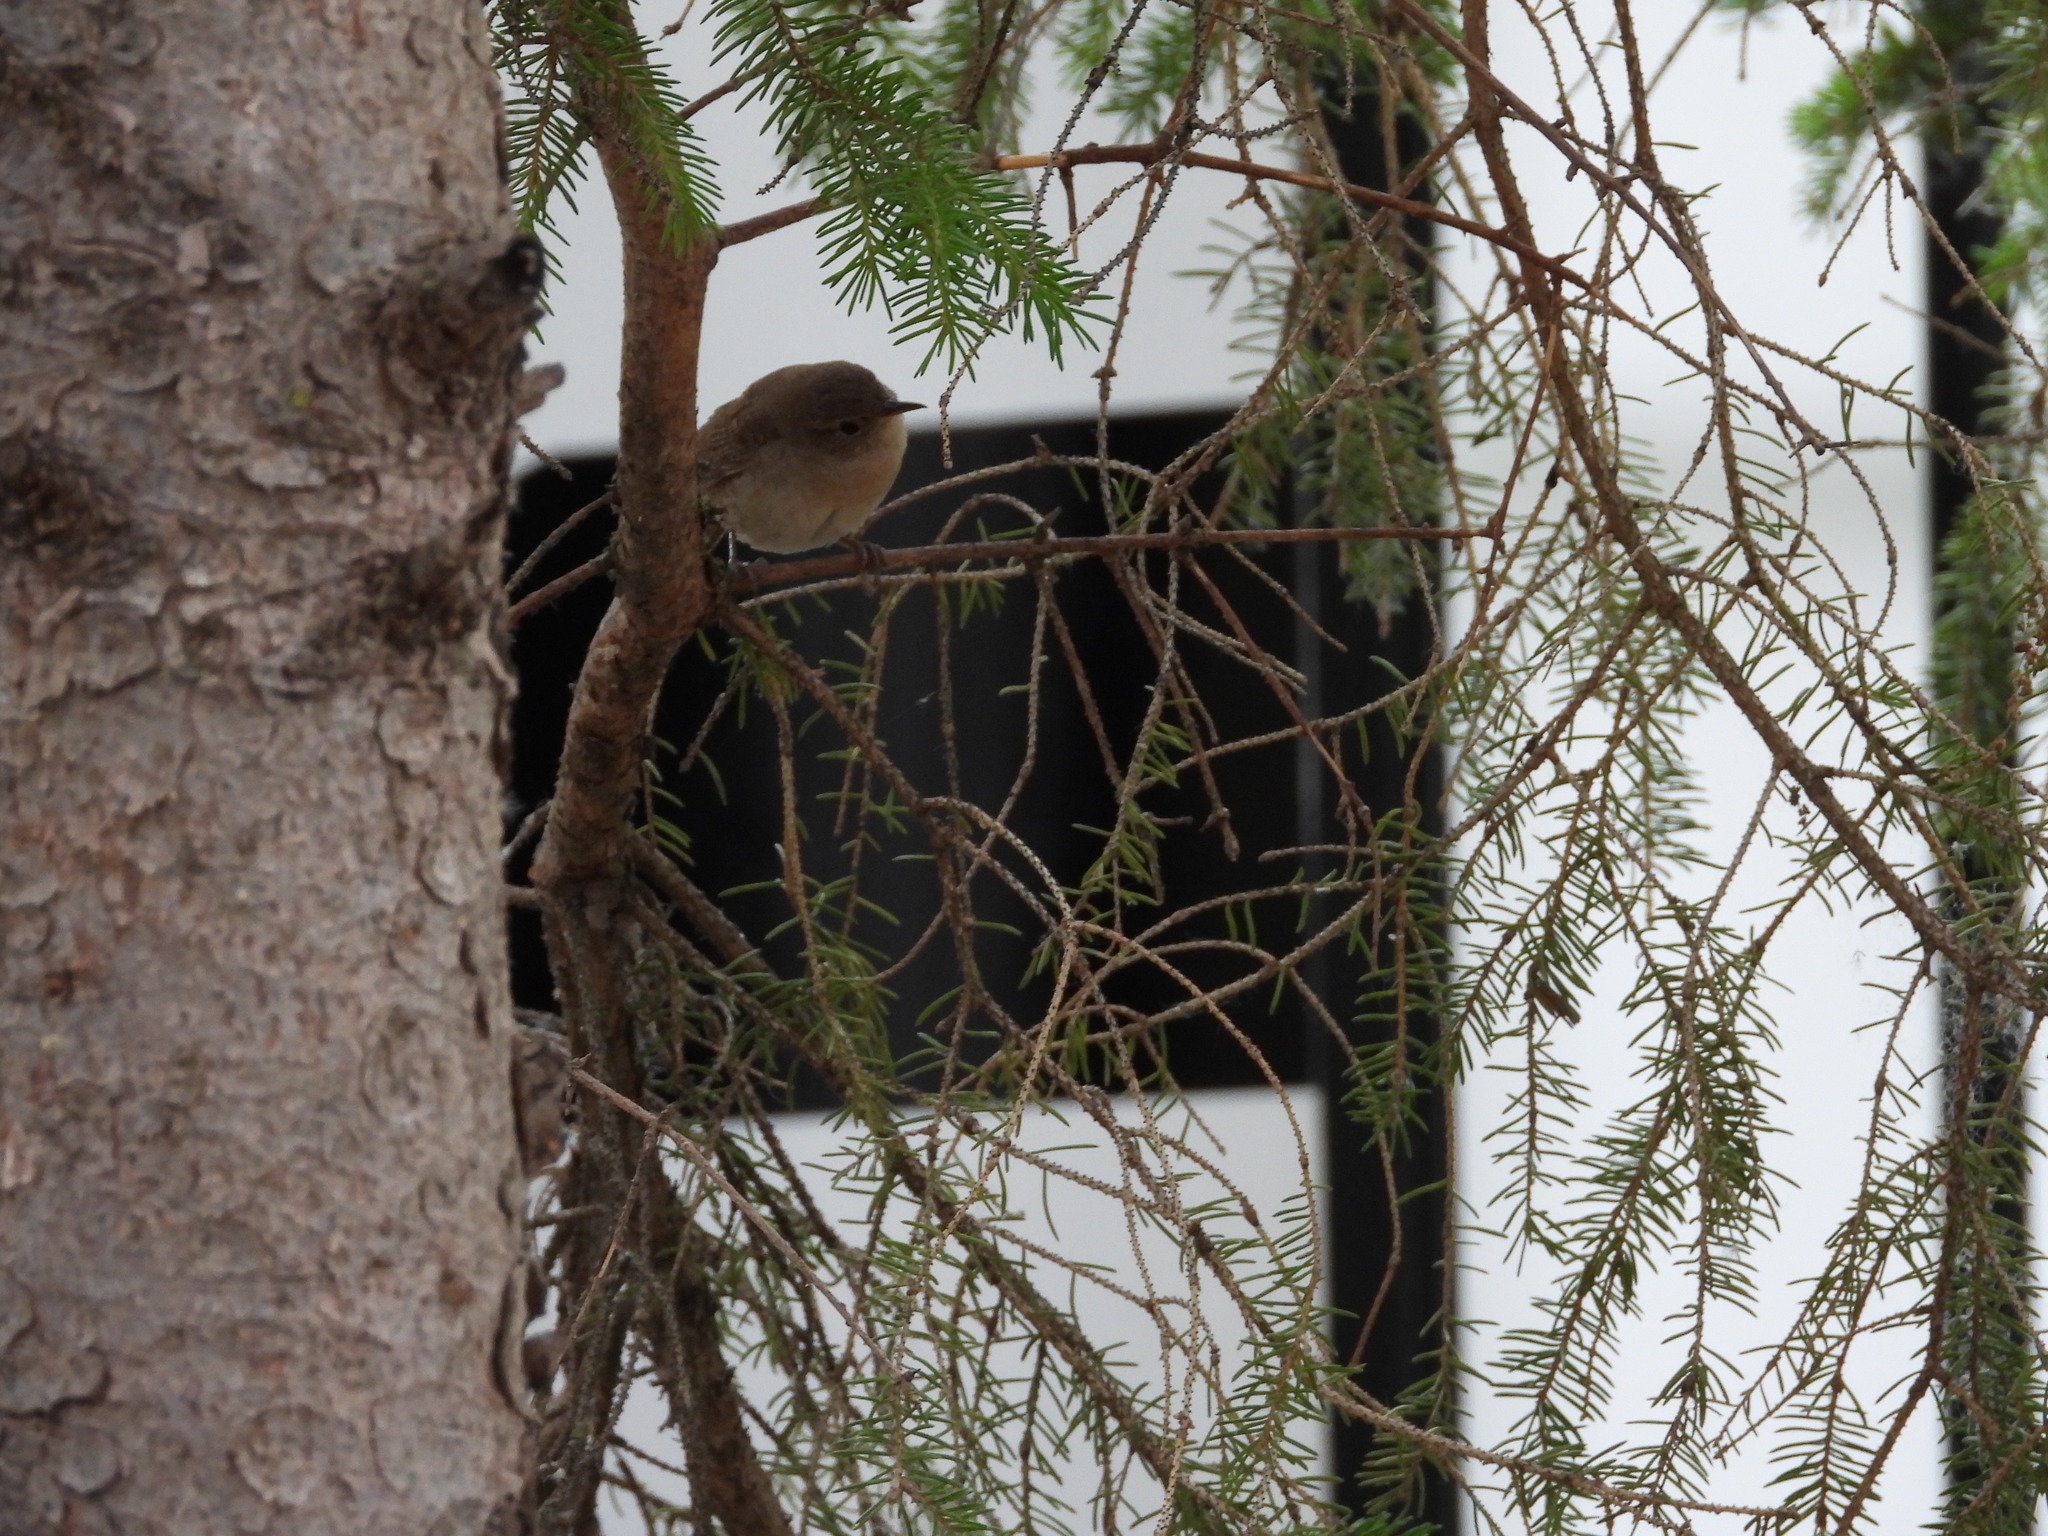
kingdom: Animalia
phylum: Chordata
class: Aves
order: Passeriformes
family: Troglodytidae
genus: Troglodytes
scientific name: Troglodytes aedon
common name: House wren
